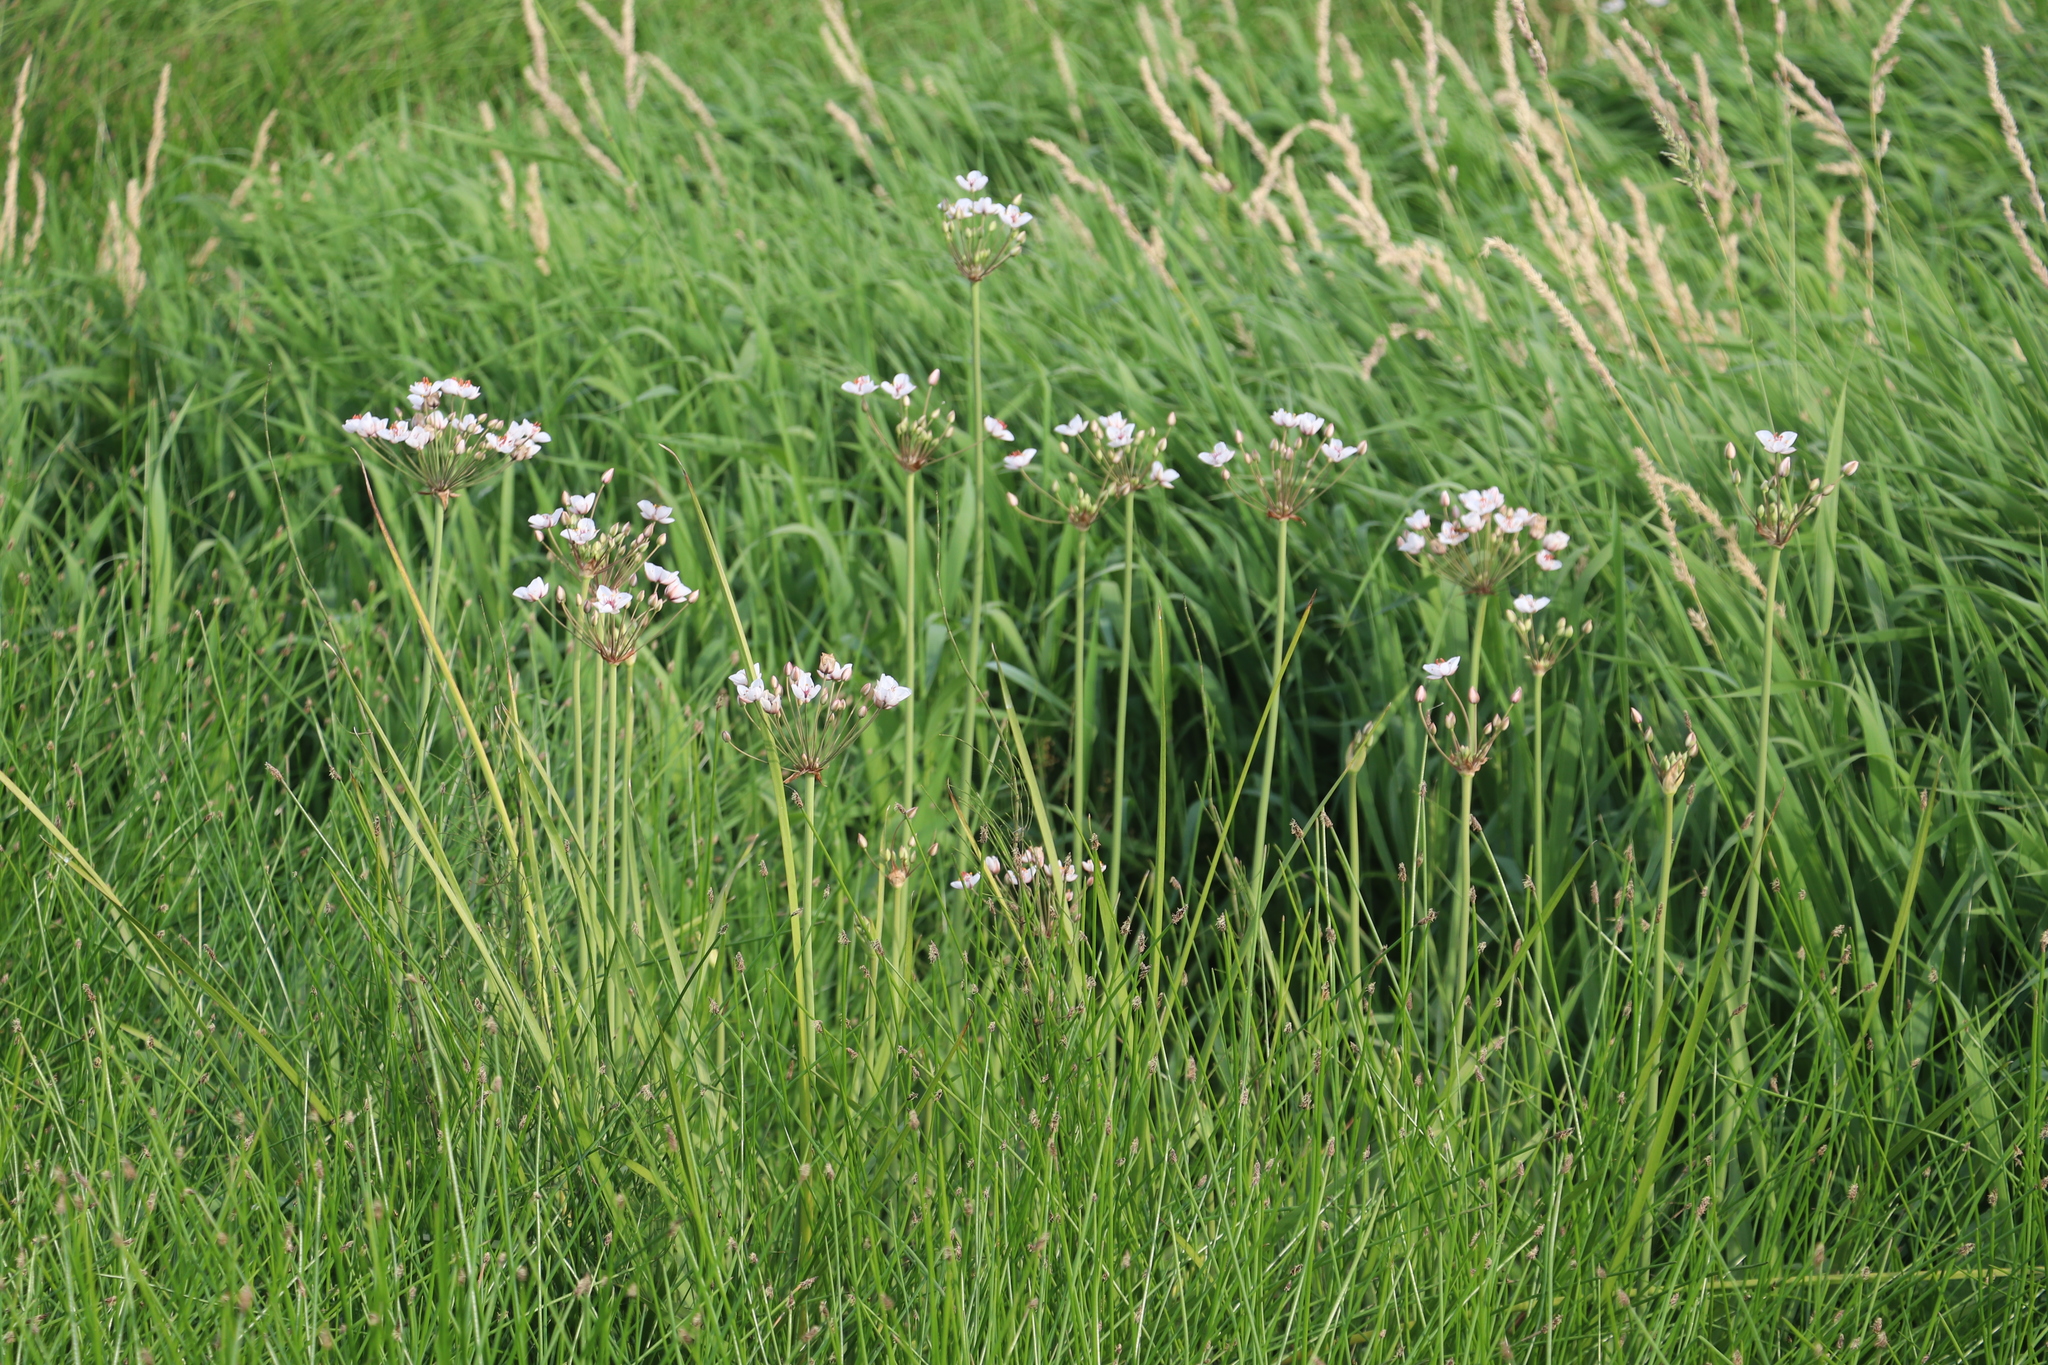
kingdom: Plantae
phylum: Tracheophyta
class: Liliopsida
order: Alismatales
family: Butomaceae
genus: Butomus
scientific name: Butomus umbellatus
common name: Flowering-rush
